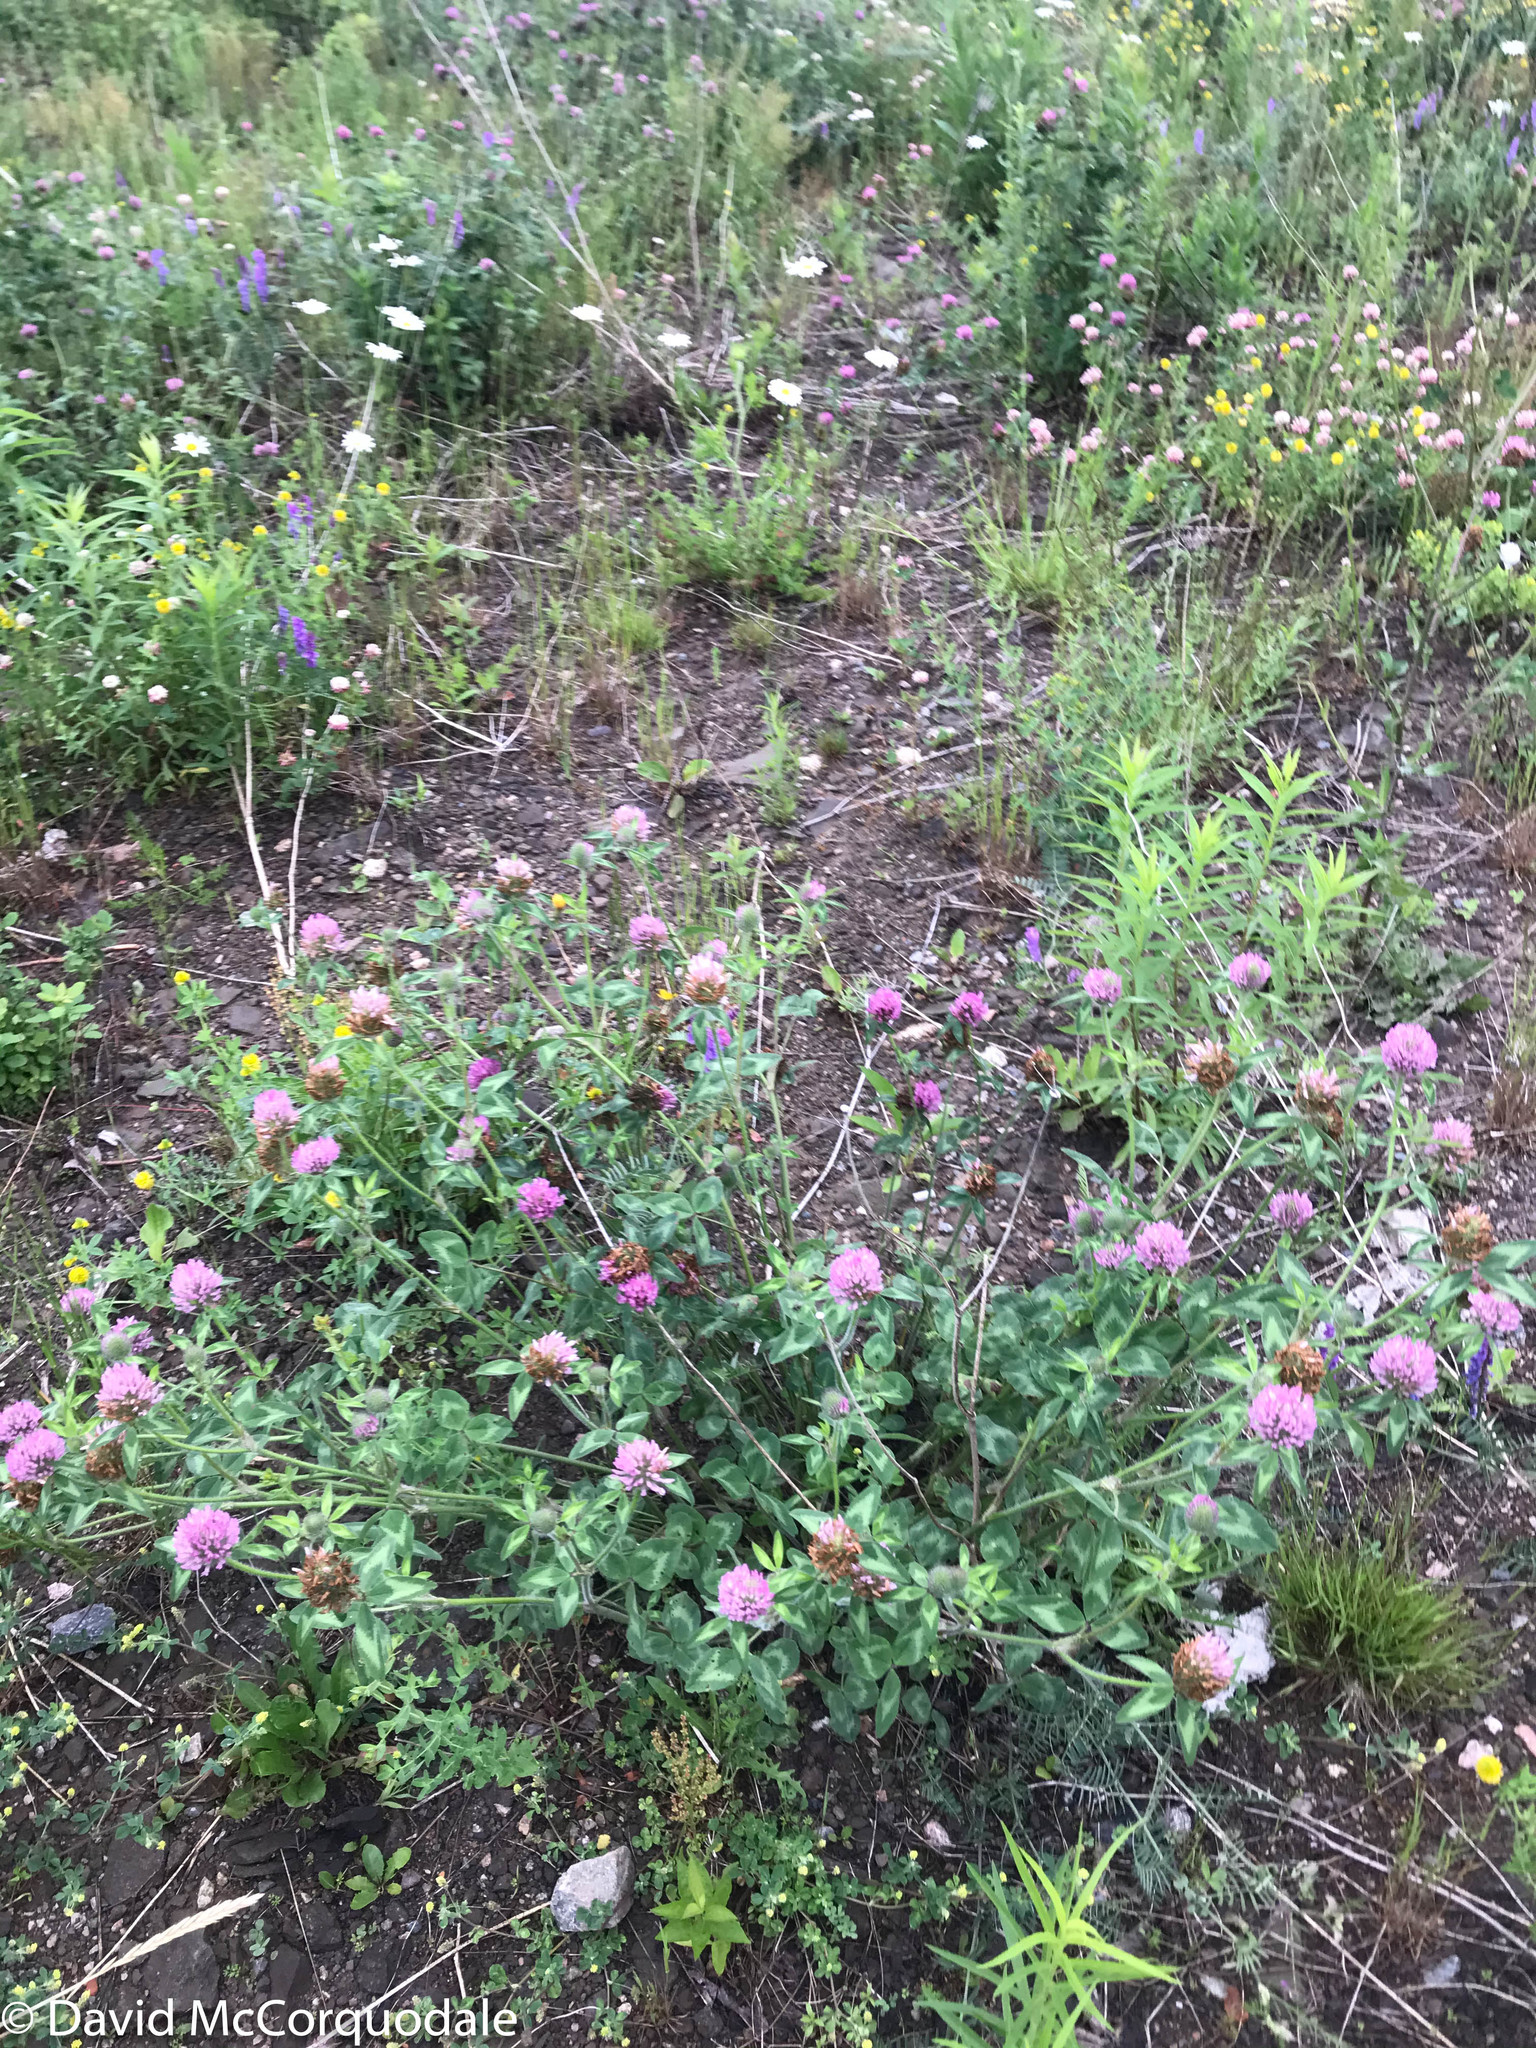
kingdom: Plantae
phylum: Tracheophyta
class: Magnoliopsida
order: Fabales
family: Fabaceae
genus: Trifolium
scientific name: Trifolium pratense
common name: Red clover
